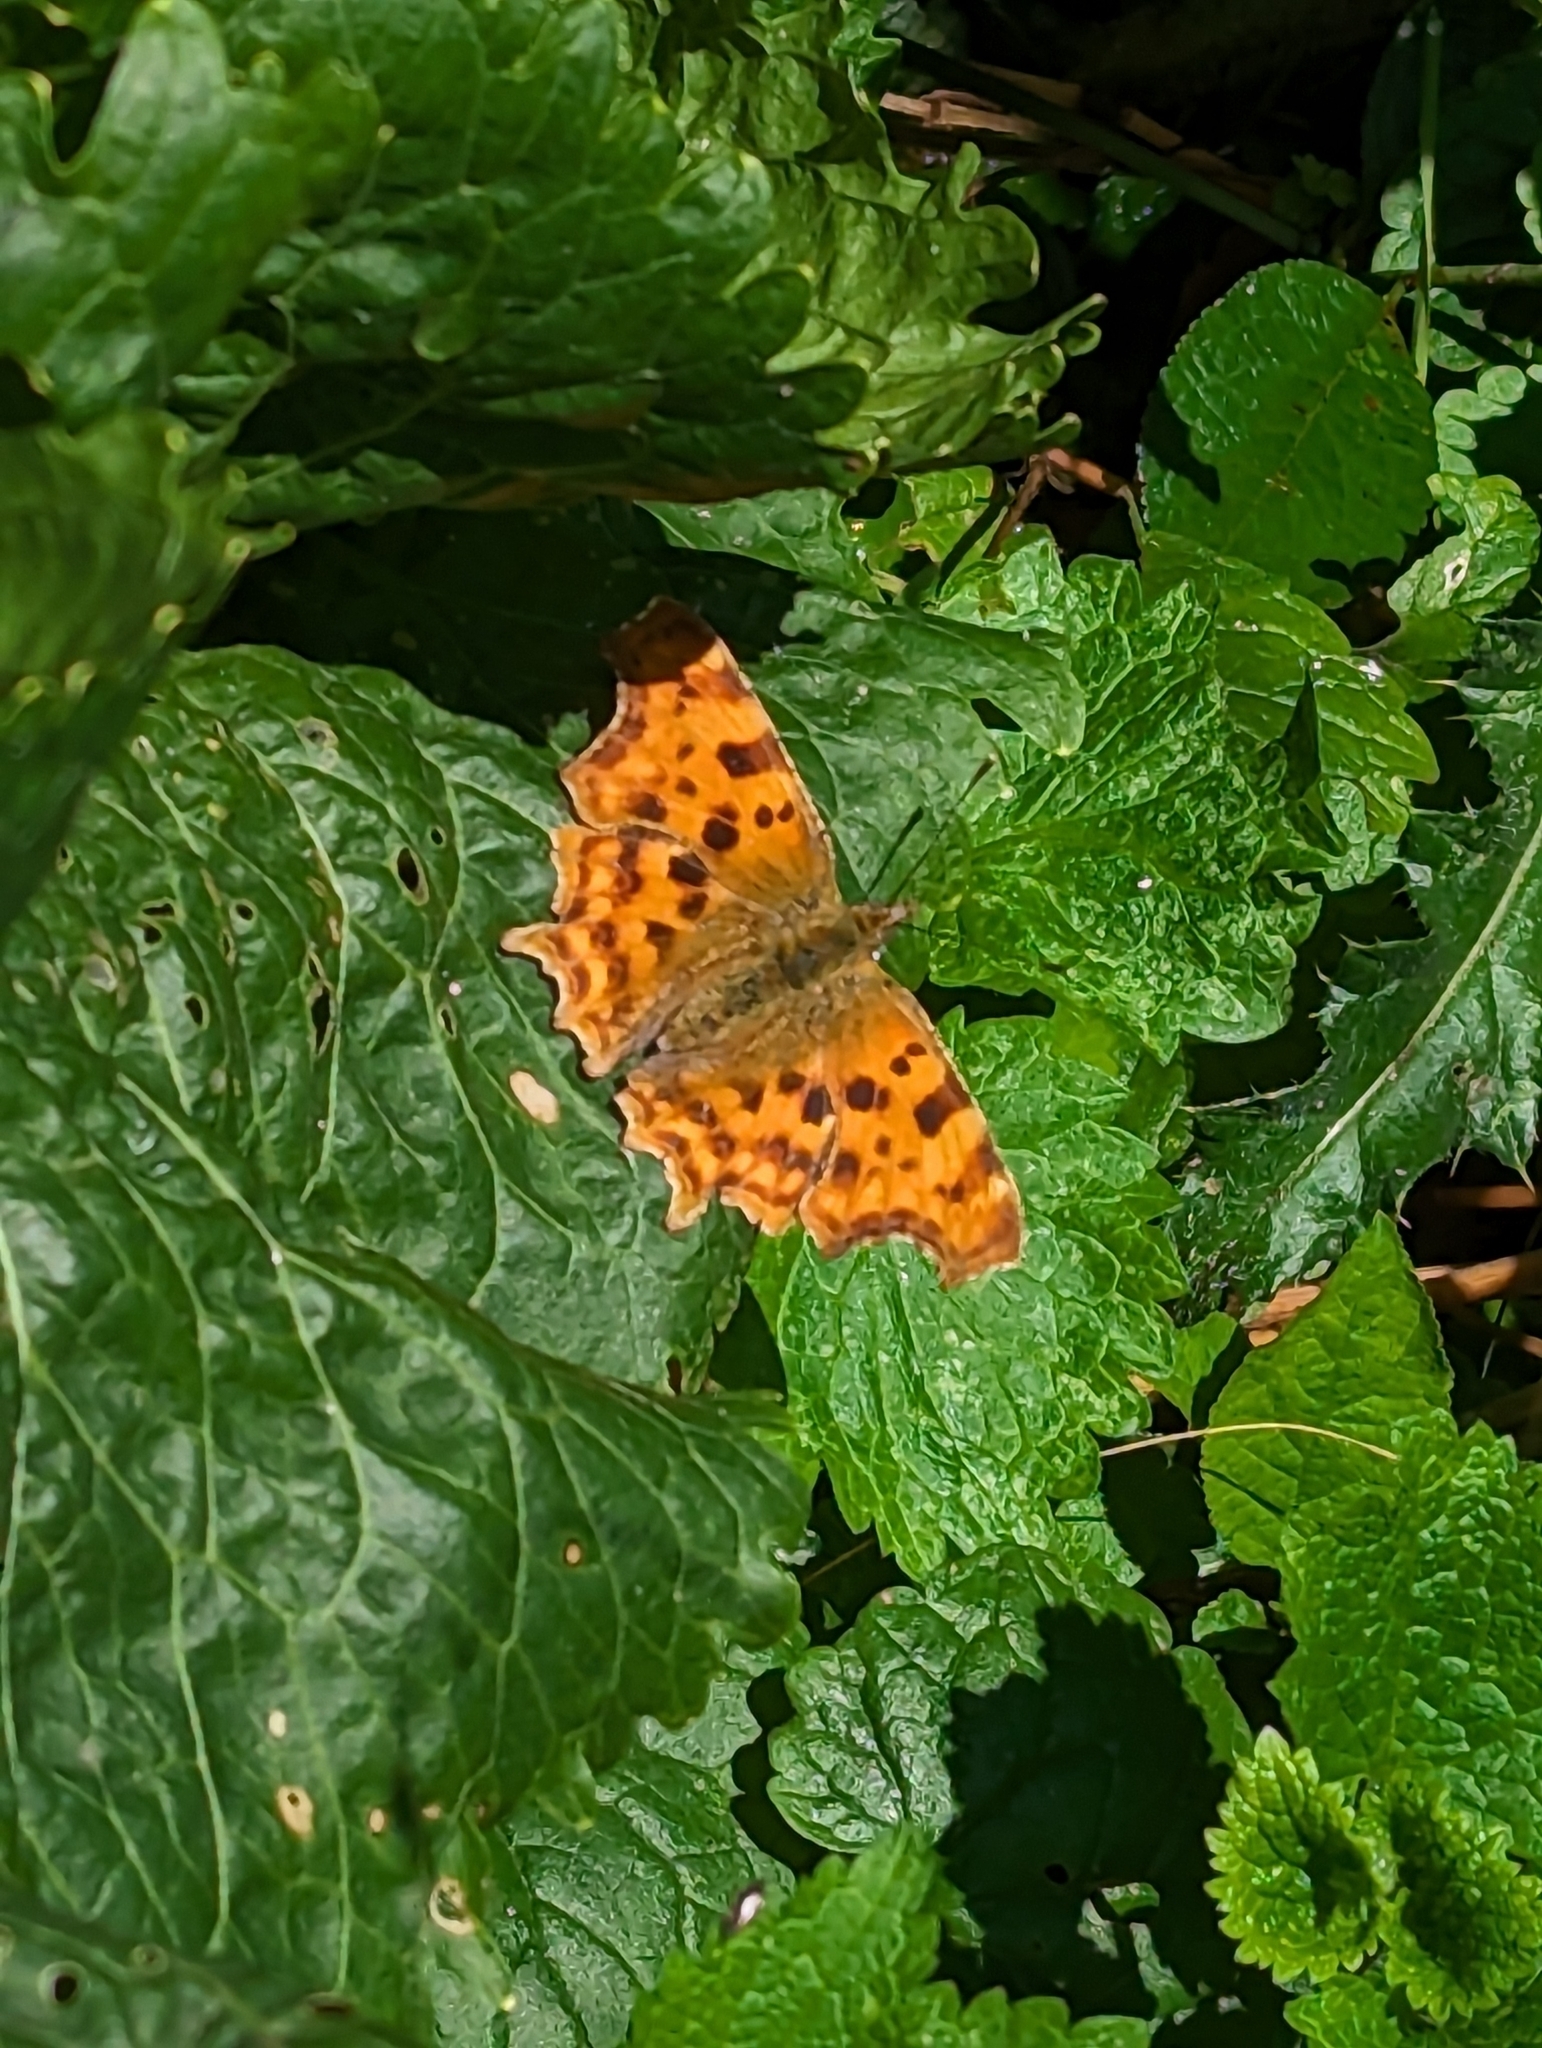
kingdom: Animalia
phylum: Arthropoda
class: Insecta
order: Lepidoptera
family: Nymphalidae
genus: Polygonia
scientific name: Polygonia c-album
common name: Comma
